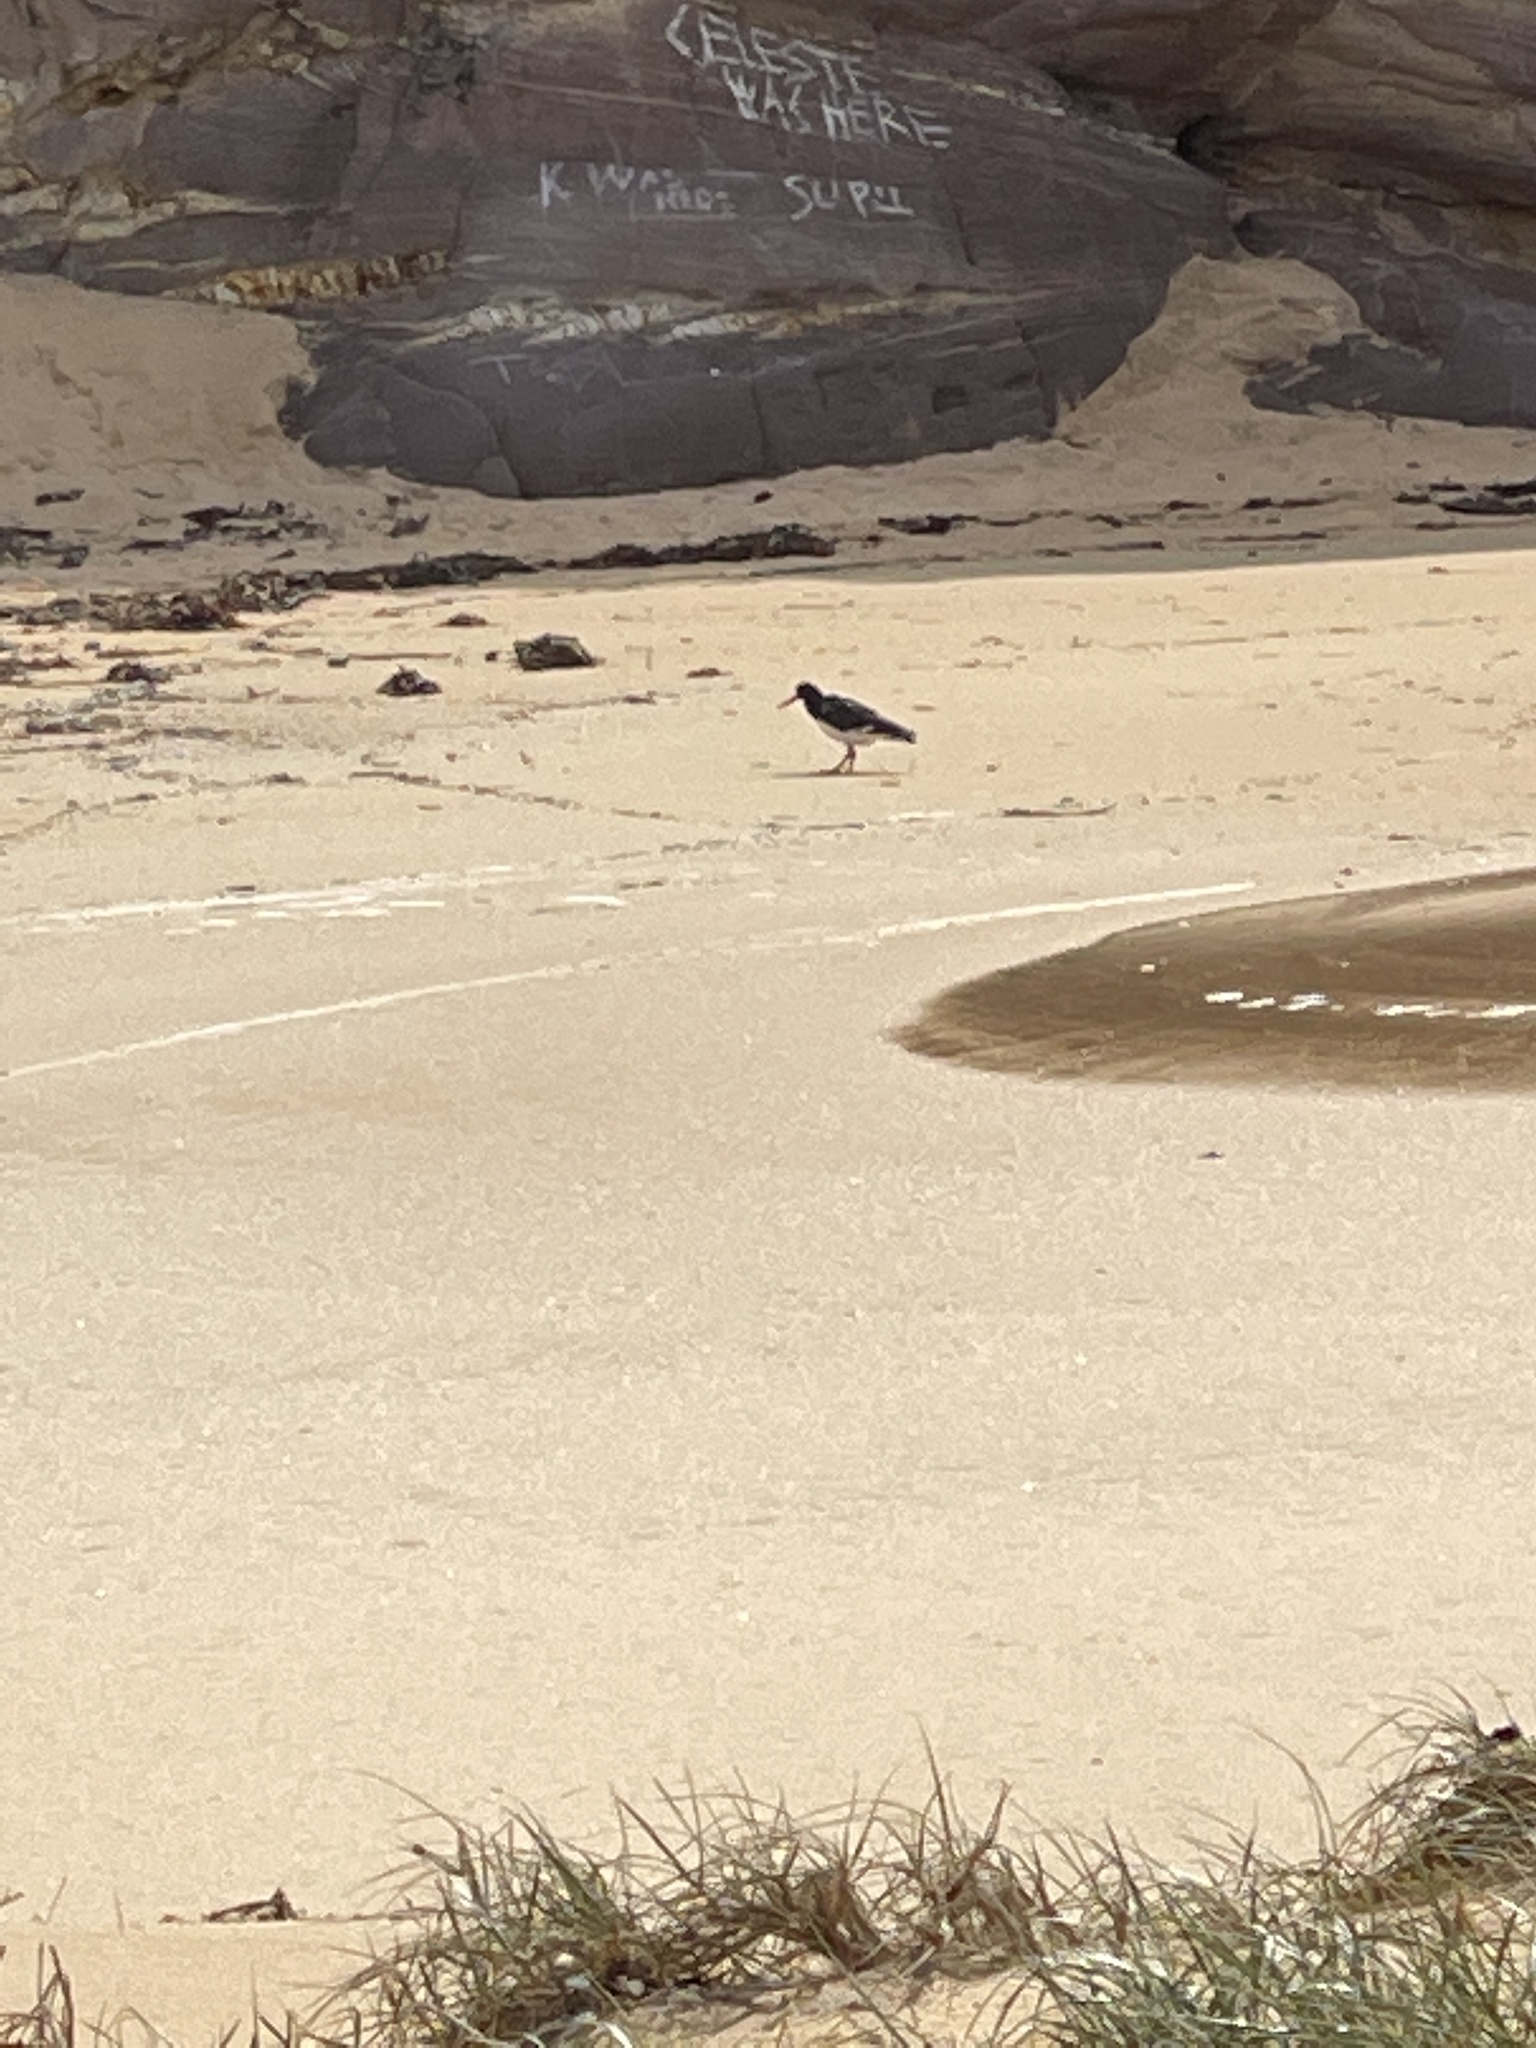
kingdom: Animalia
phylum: Chordata
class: Aves
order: Charadriiformes
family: Haematopodidae
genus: Haematopus
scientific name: Haematopus longirostris
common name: Pied oystercatcher
